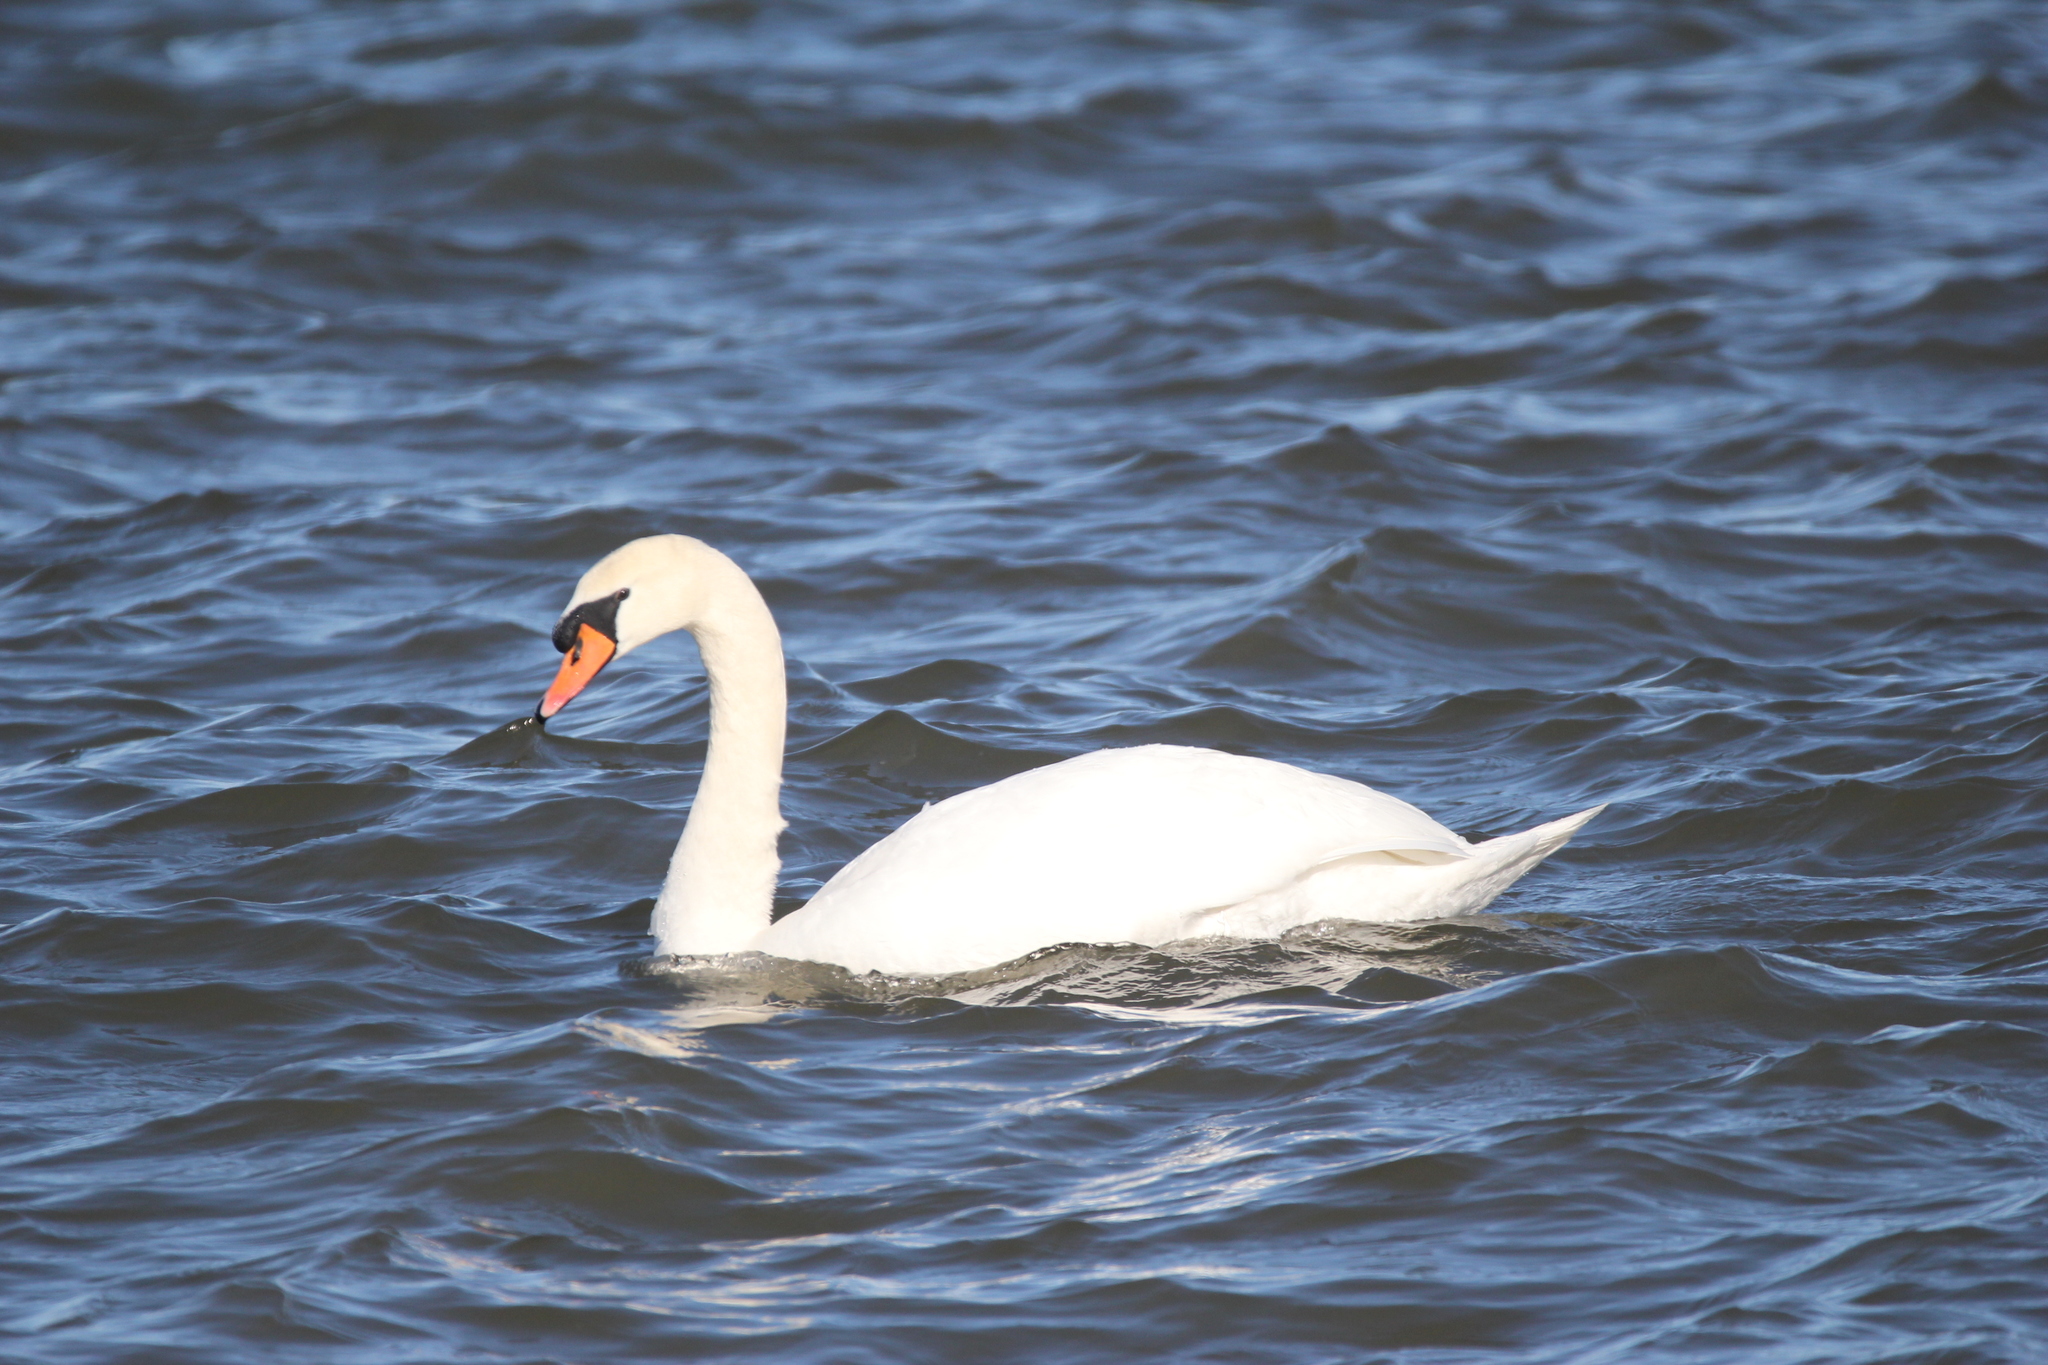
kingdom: Animalia
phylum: Chordata
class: Aves
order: Anseriformes
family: Anatidae
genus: Cygnus
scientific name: Cygnus olor
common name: Mute swan
